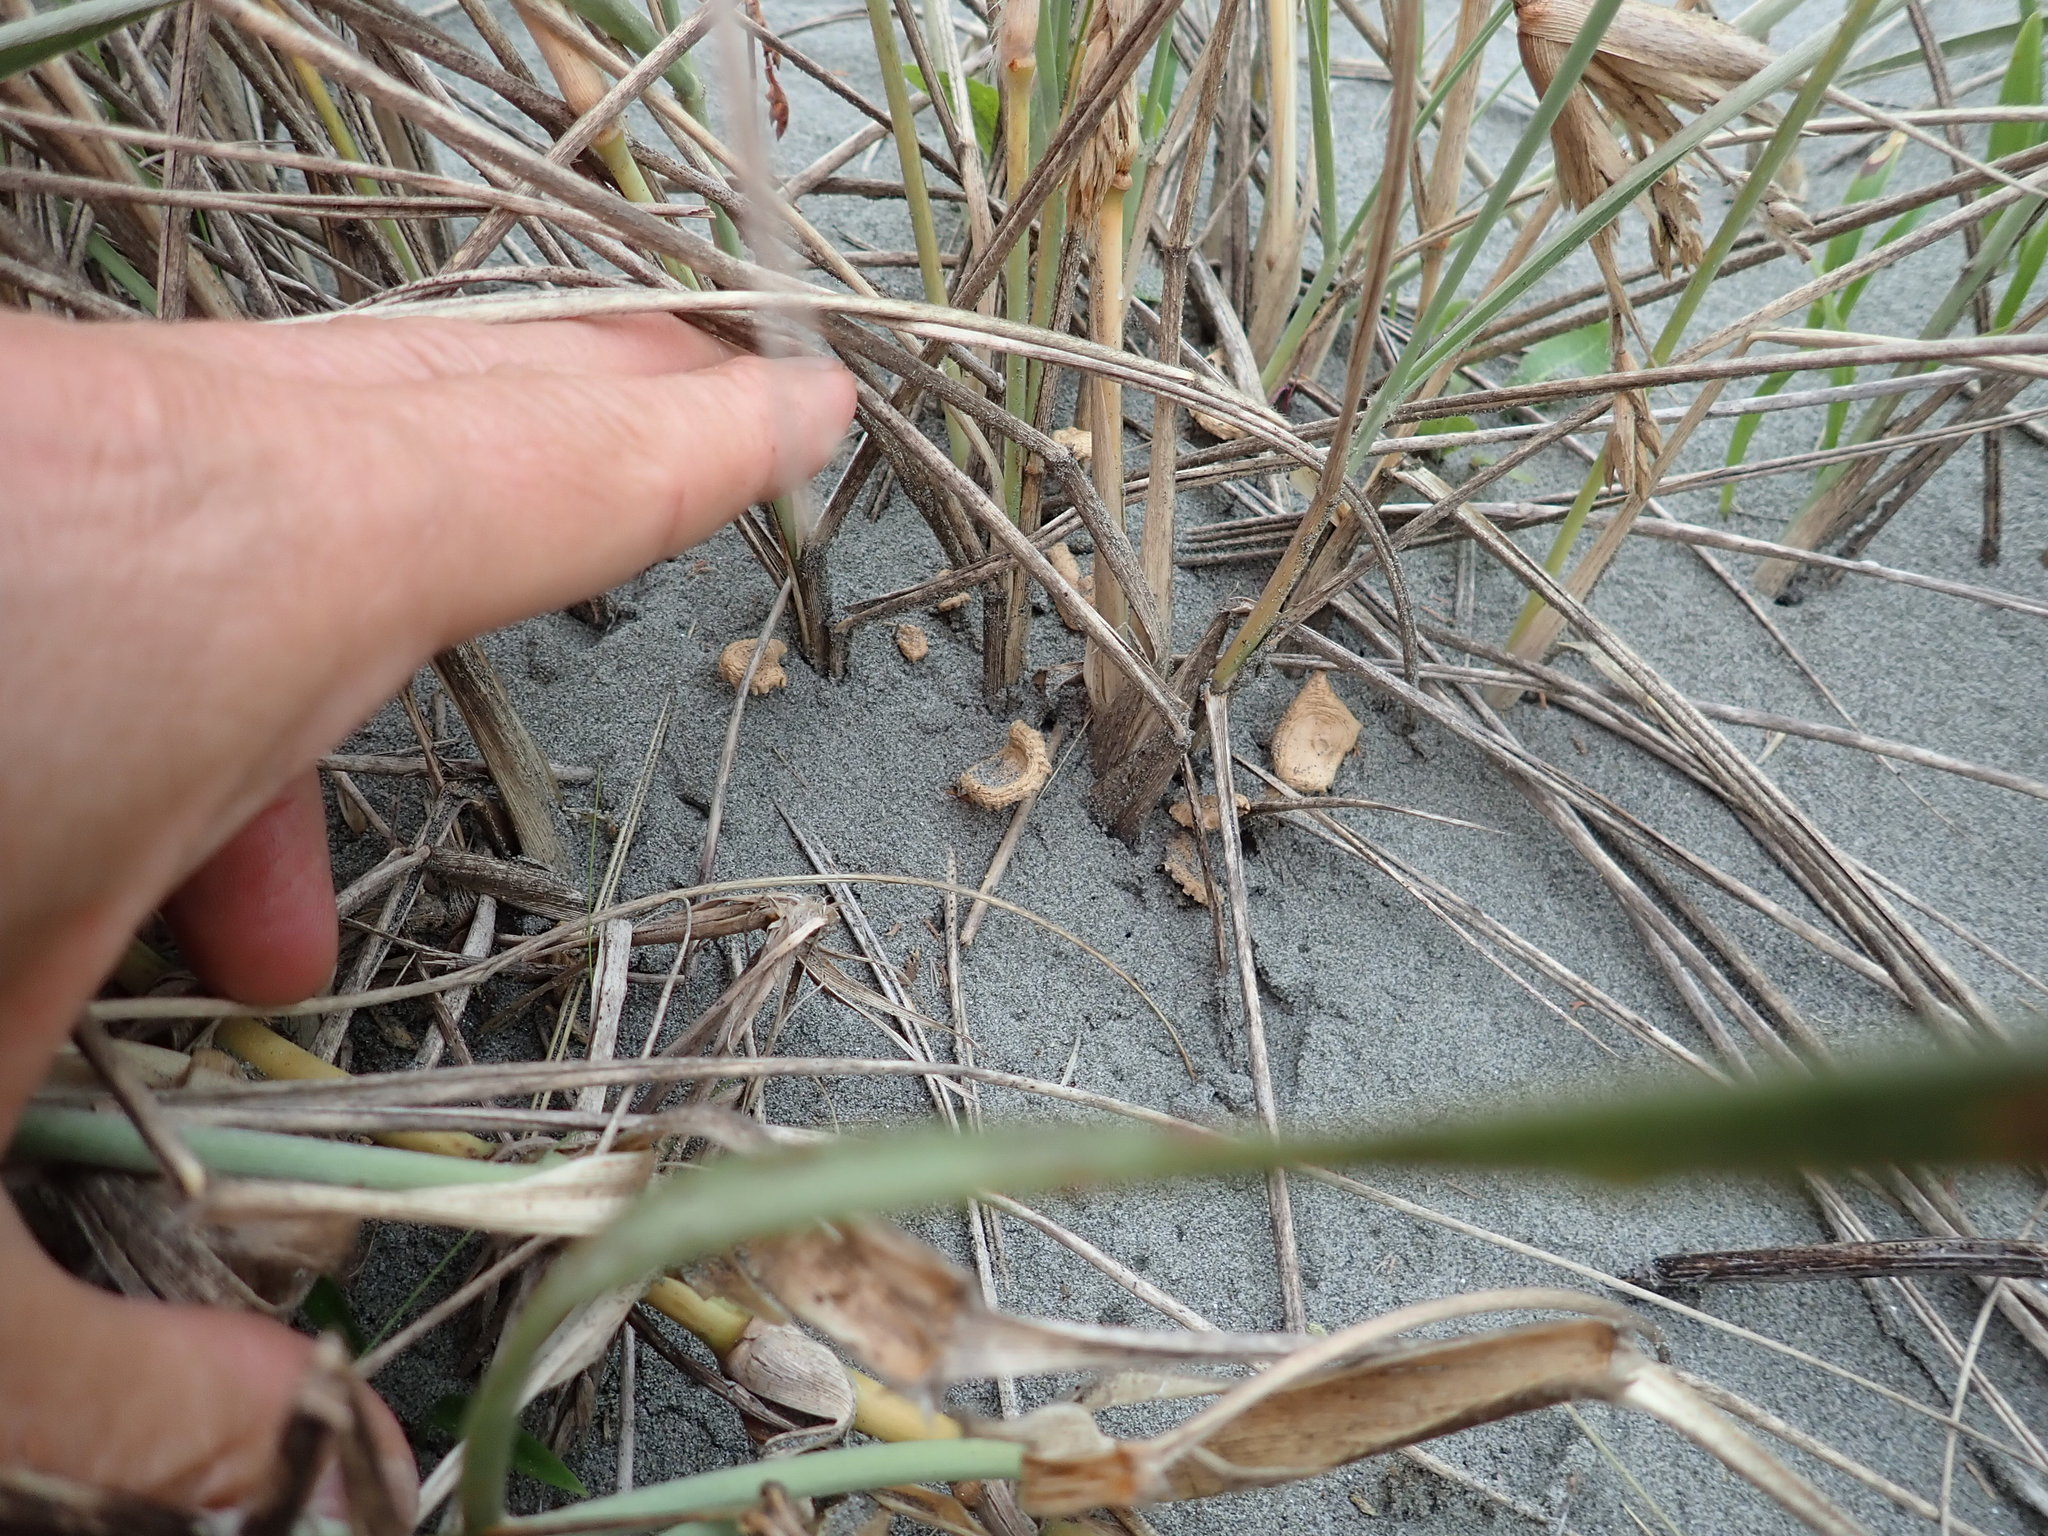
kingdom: Fungi
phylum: Basidiomycota
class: Agaricomycetes
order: Agaricales
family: Marasmiaceae
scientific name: Marasmiaceae
